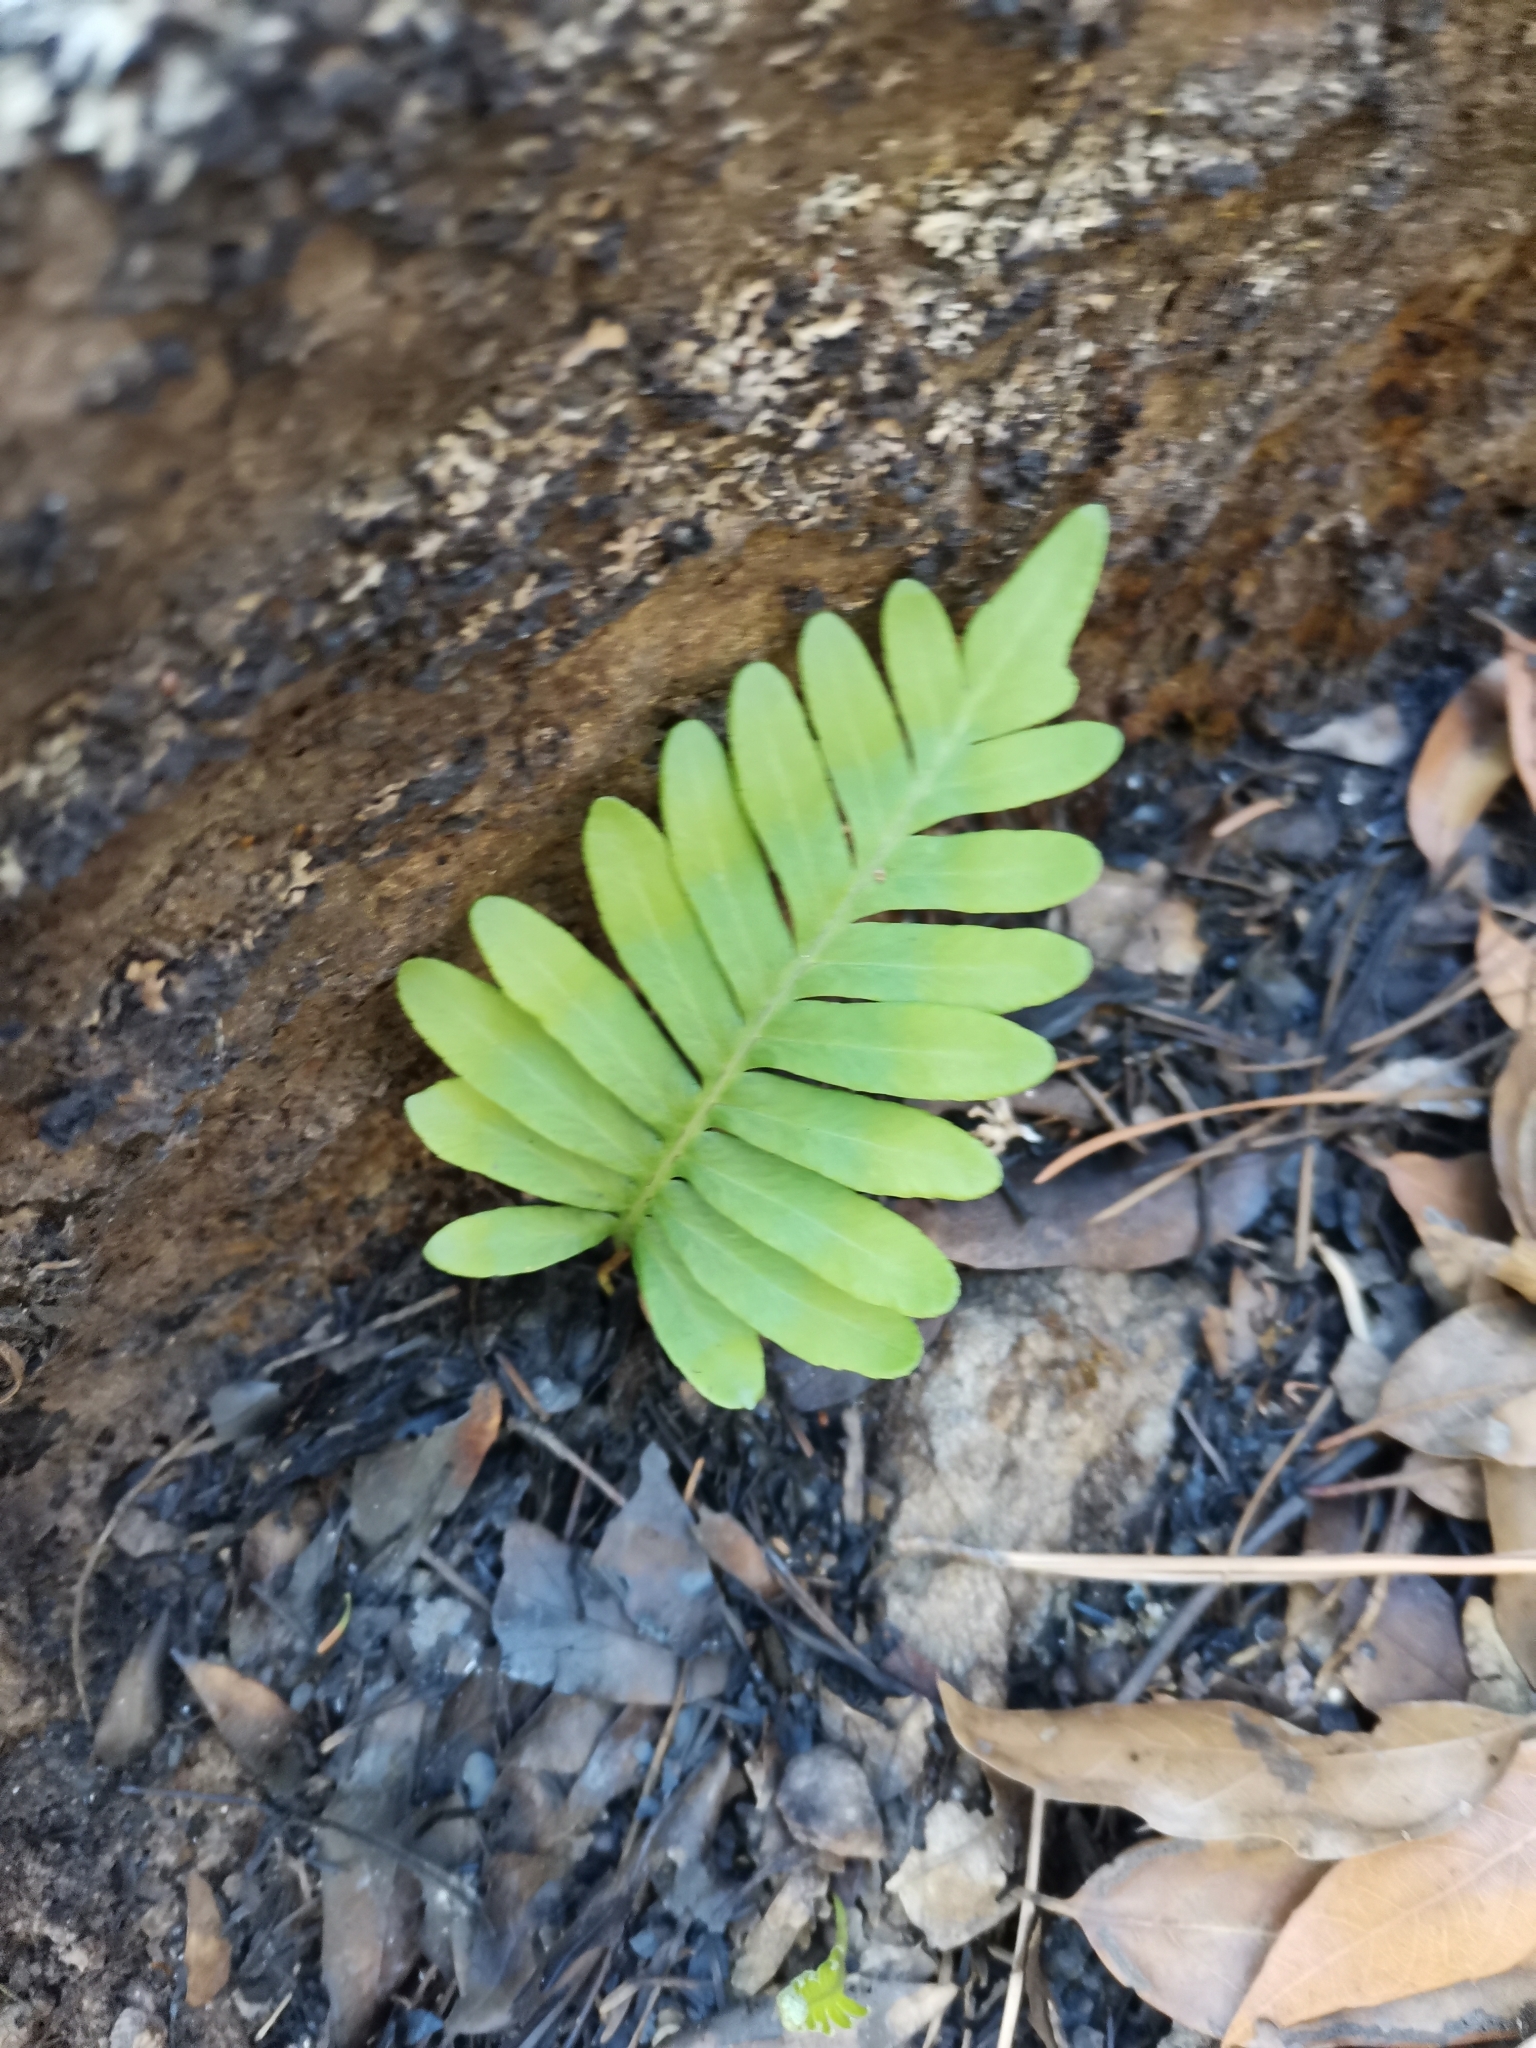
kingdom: Plantae
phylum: Tracheophyta
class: Polypodiopsida
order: Polypodiales
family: Polypodiaceae
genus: Pleopeltis
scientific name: Pleopeltis michauxiana
